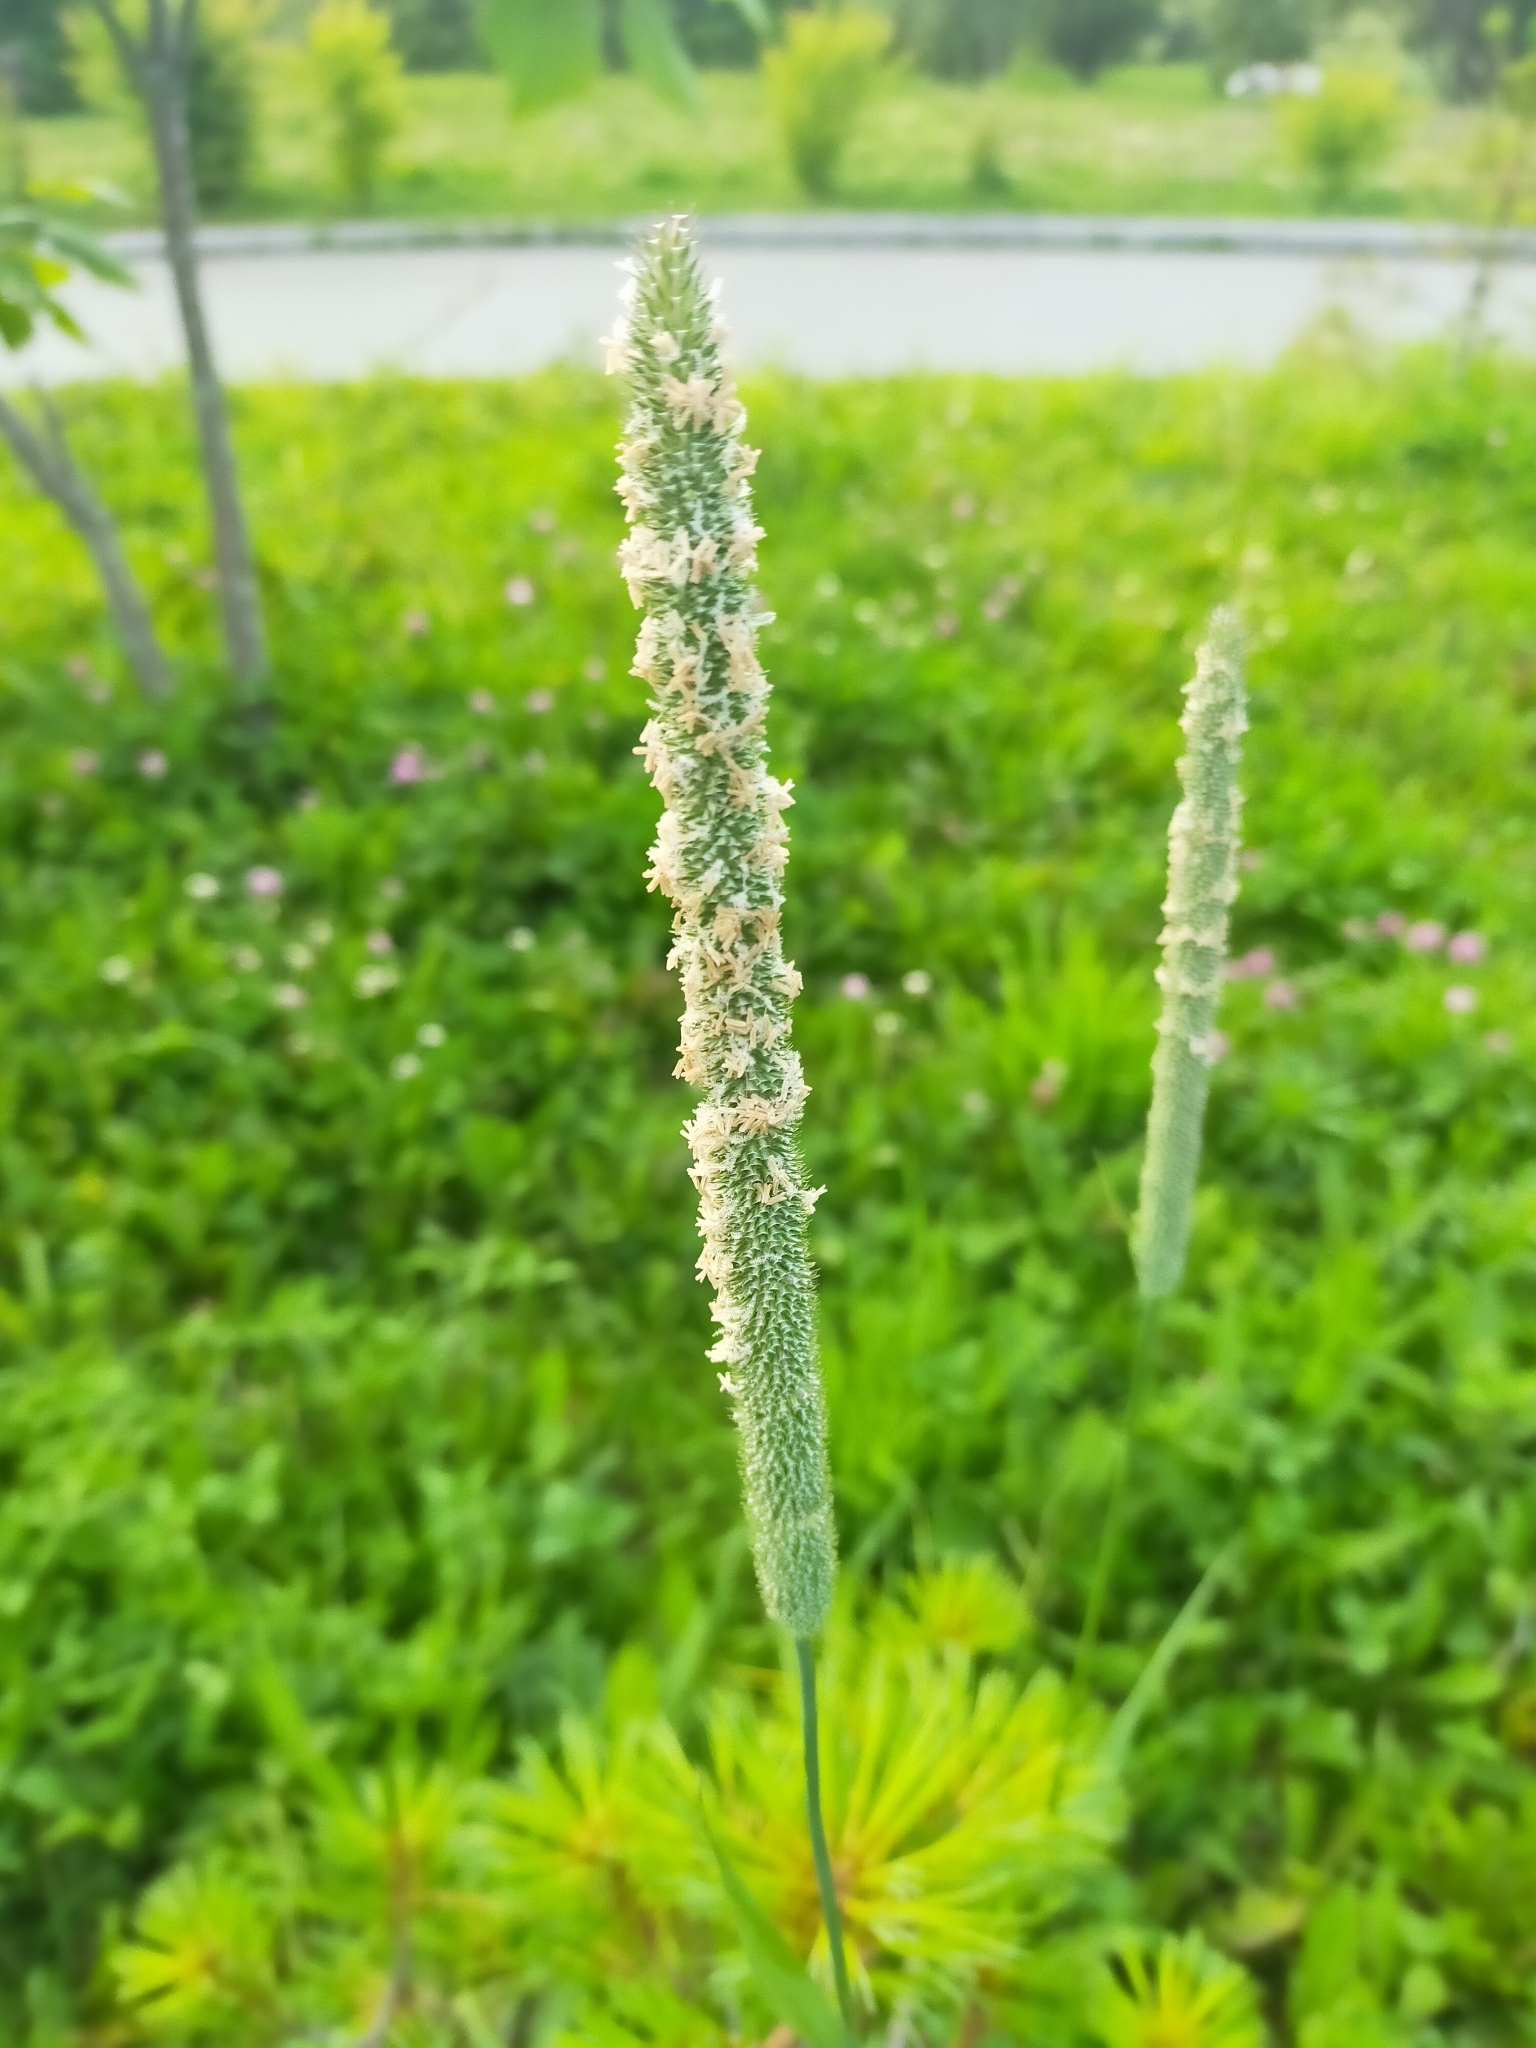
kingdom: Plantae
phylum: Tracheophyta
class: Liliopsida
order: Poales
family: Poaceae
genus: Phleum
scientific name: Phleum pratense
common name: Timothy grass
